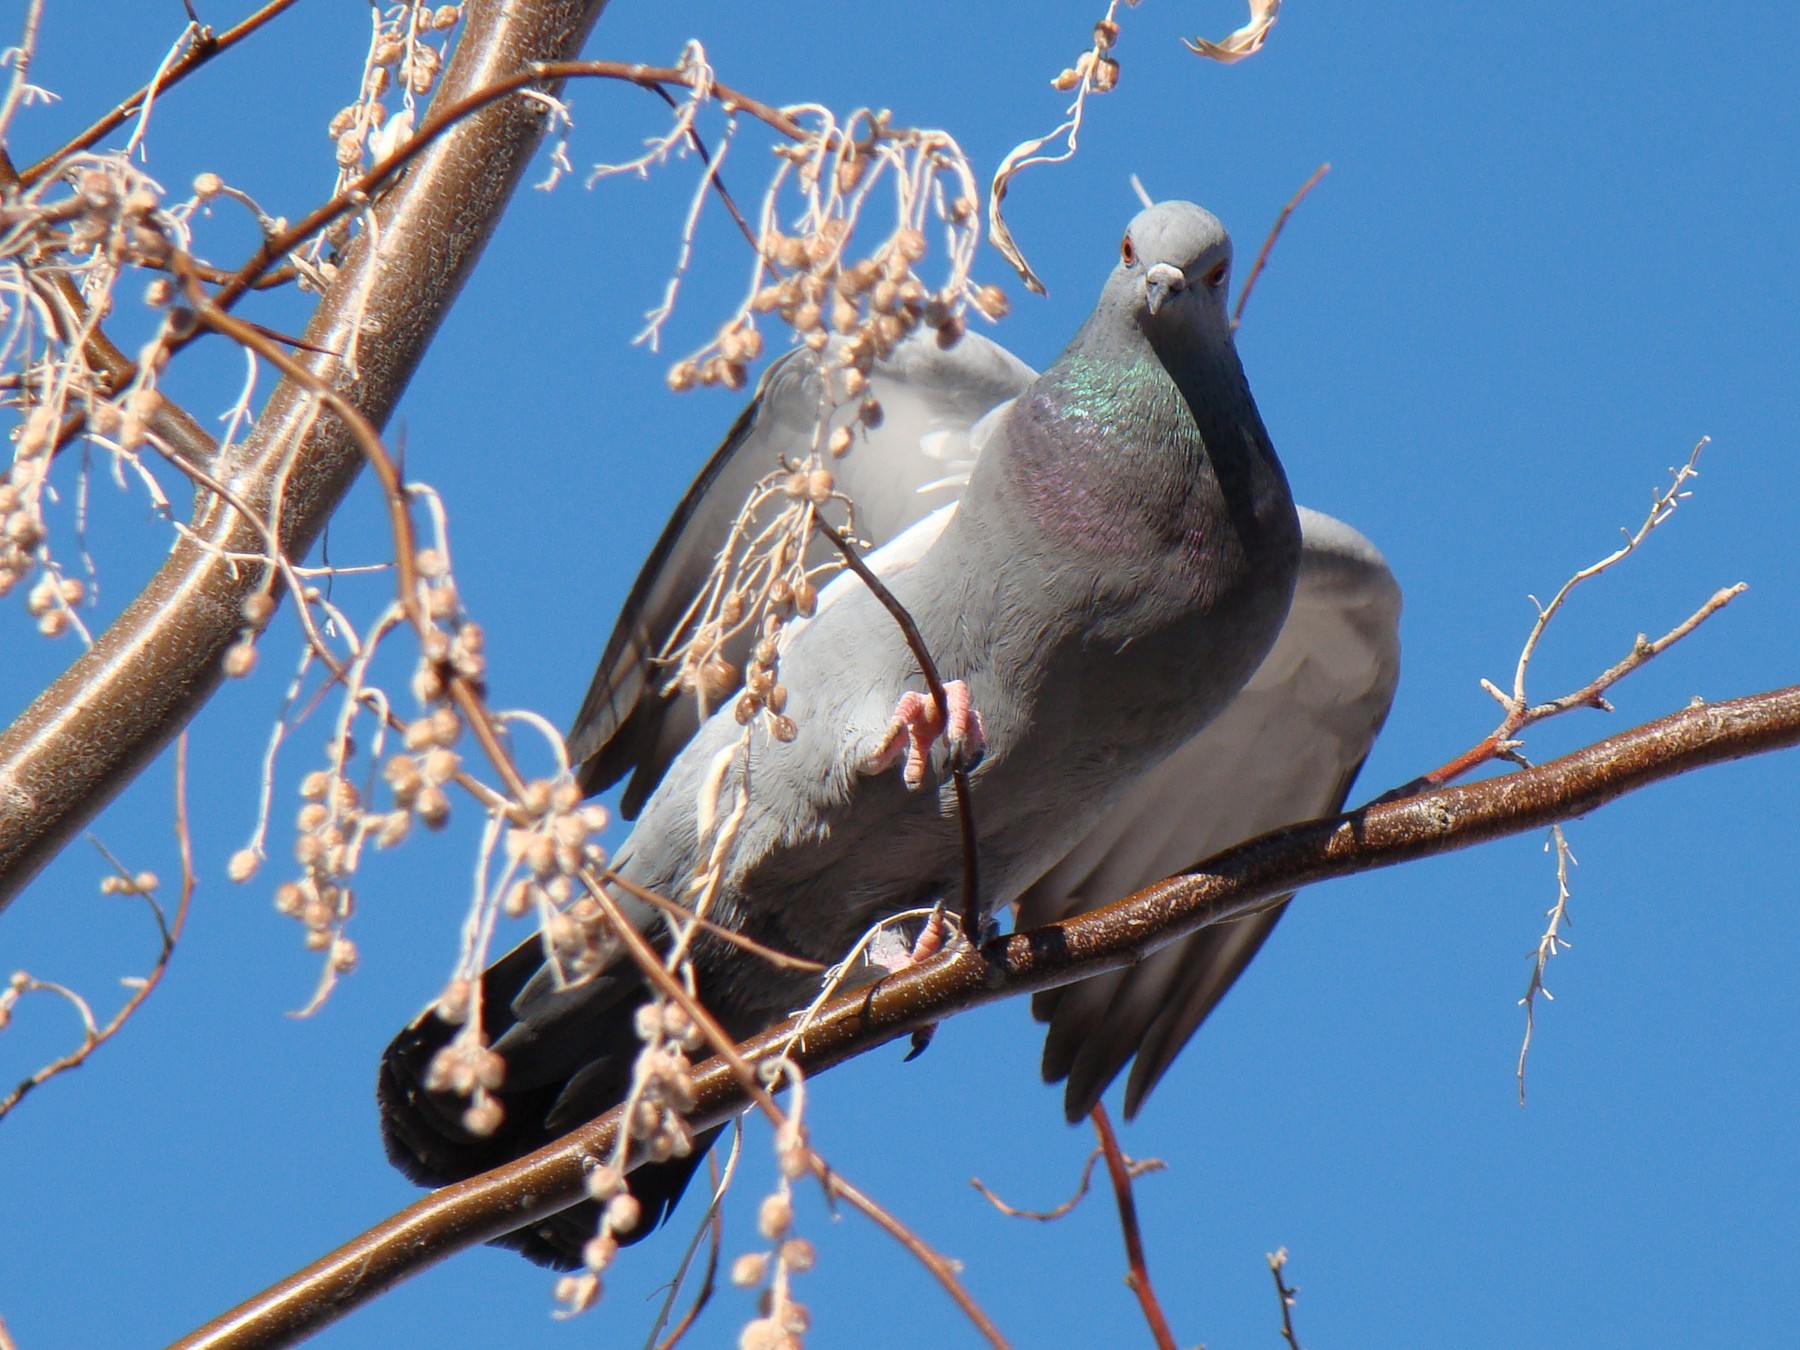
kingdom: Animalia
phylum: Chordata
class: Aves
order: Columbiformes
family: Columbidae
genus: Columba
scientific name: Columba livia
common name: Rock pigeon
